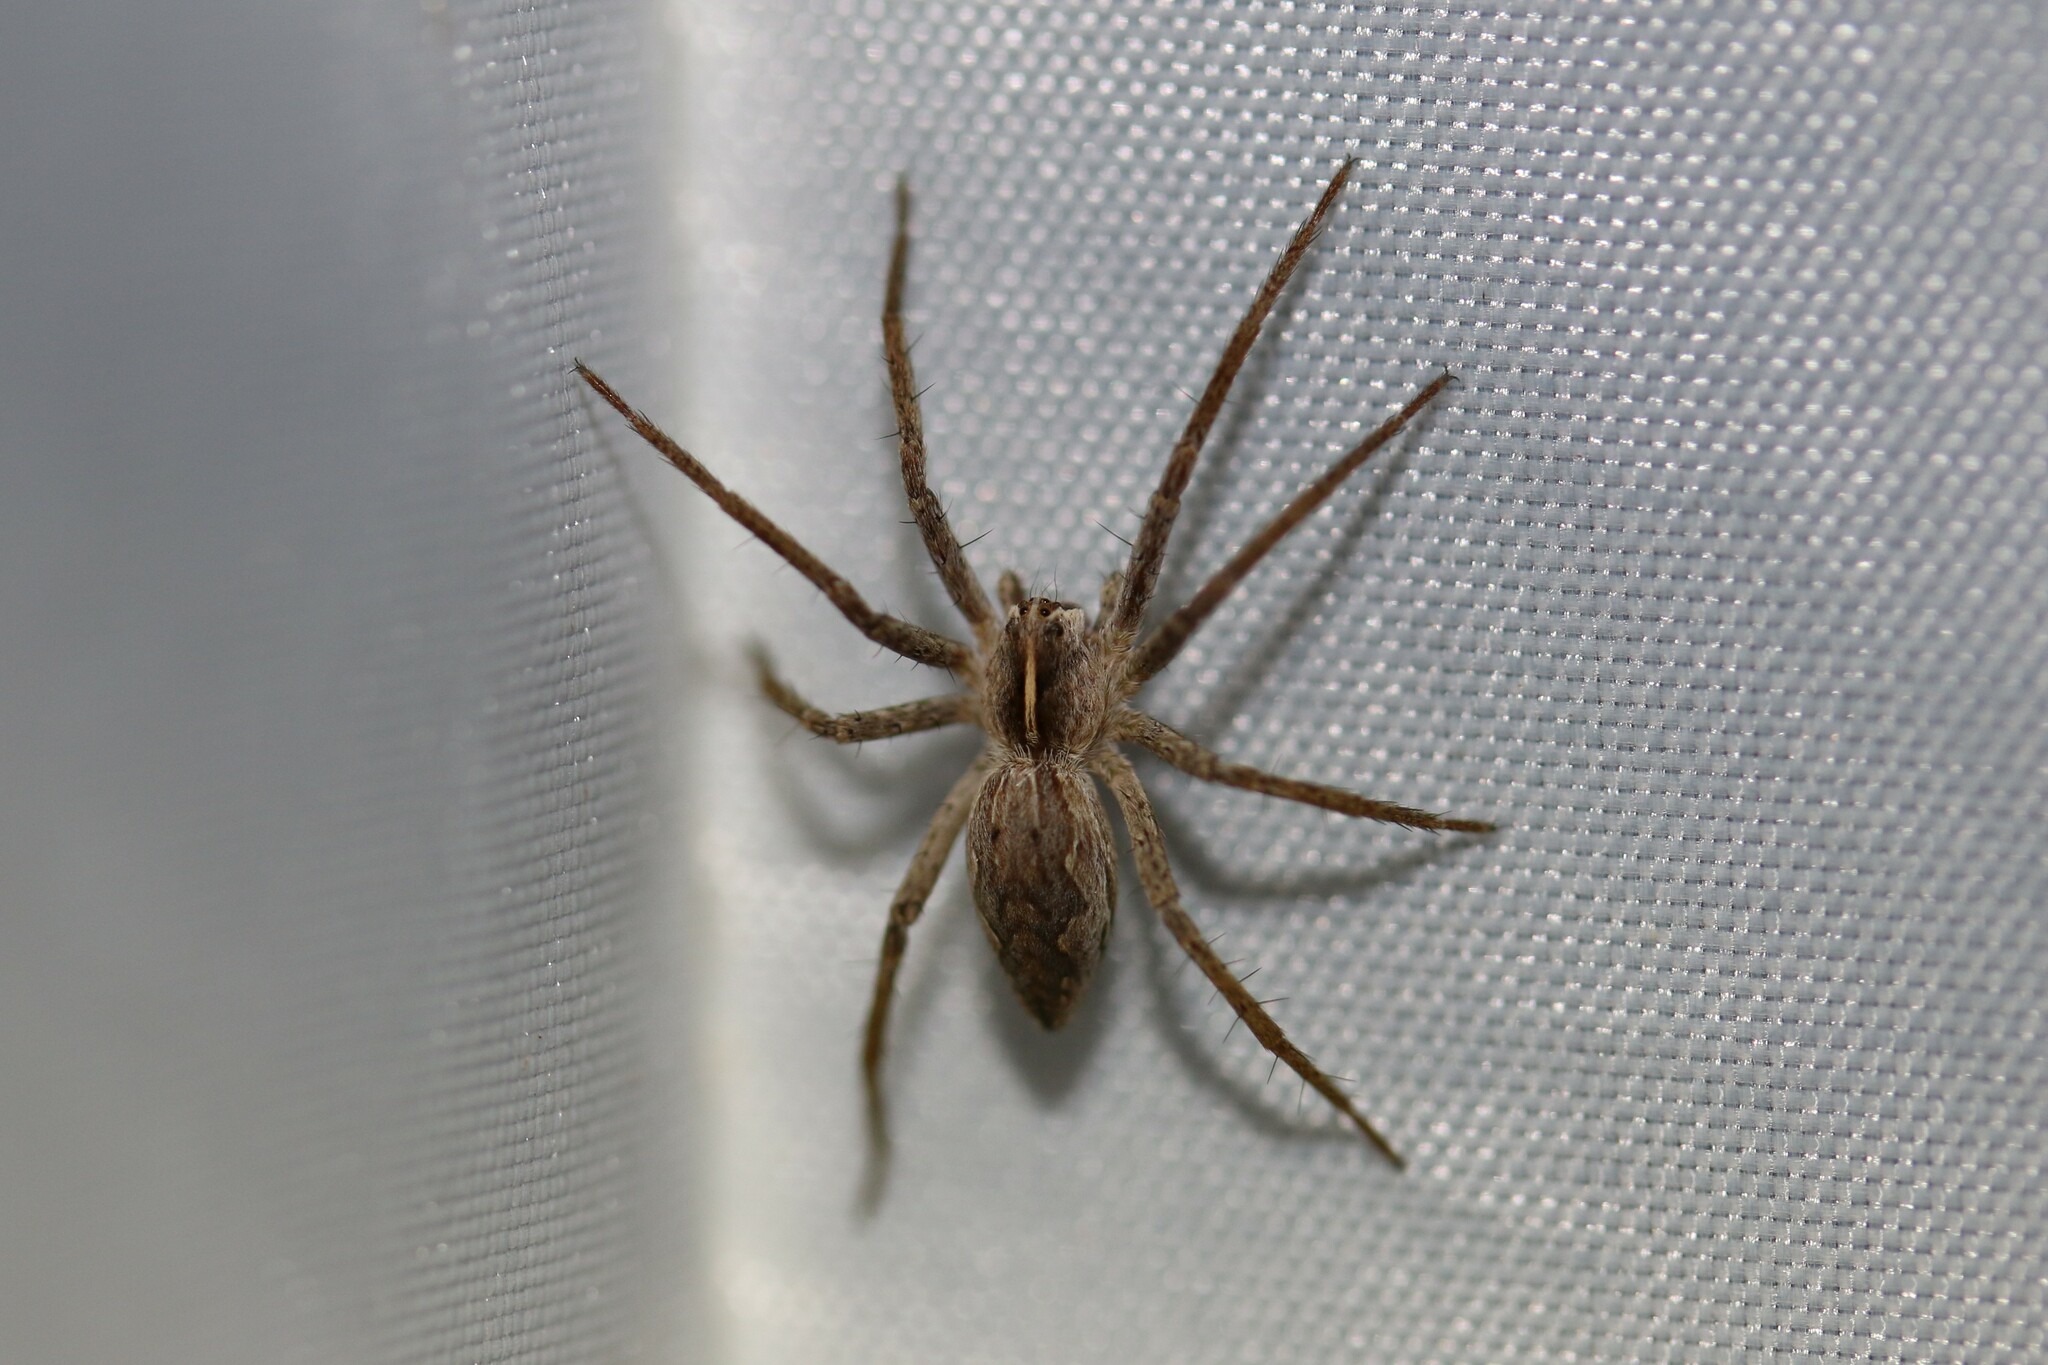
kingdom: Animalia
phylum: Arthropoda
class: Arachnida
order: Araneae
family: Pisauridae
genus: Pisaura
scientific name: Pisaura mirabilis
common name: Tent spider
